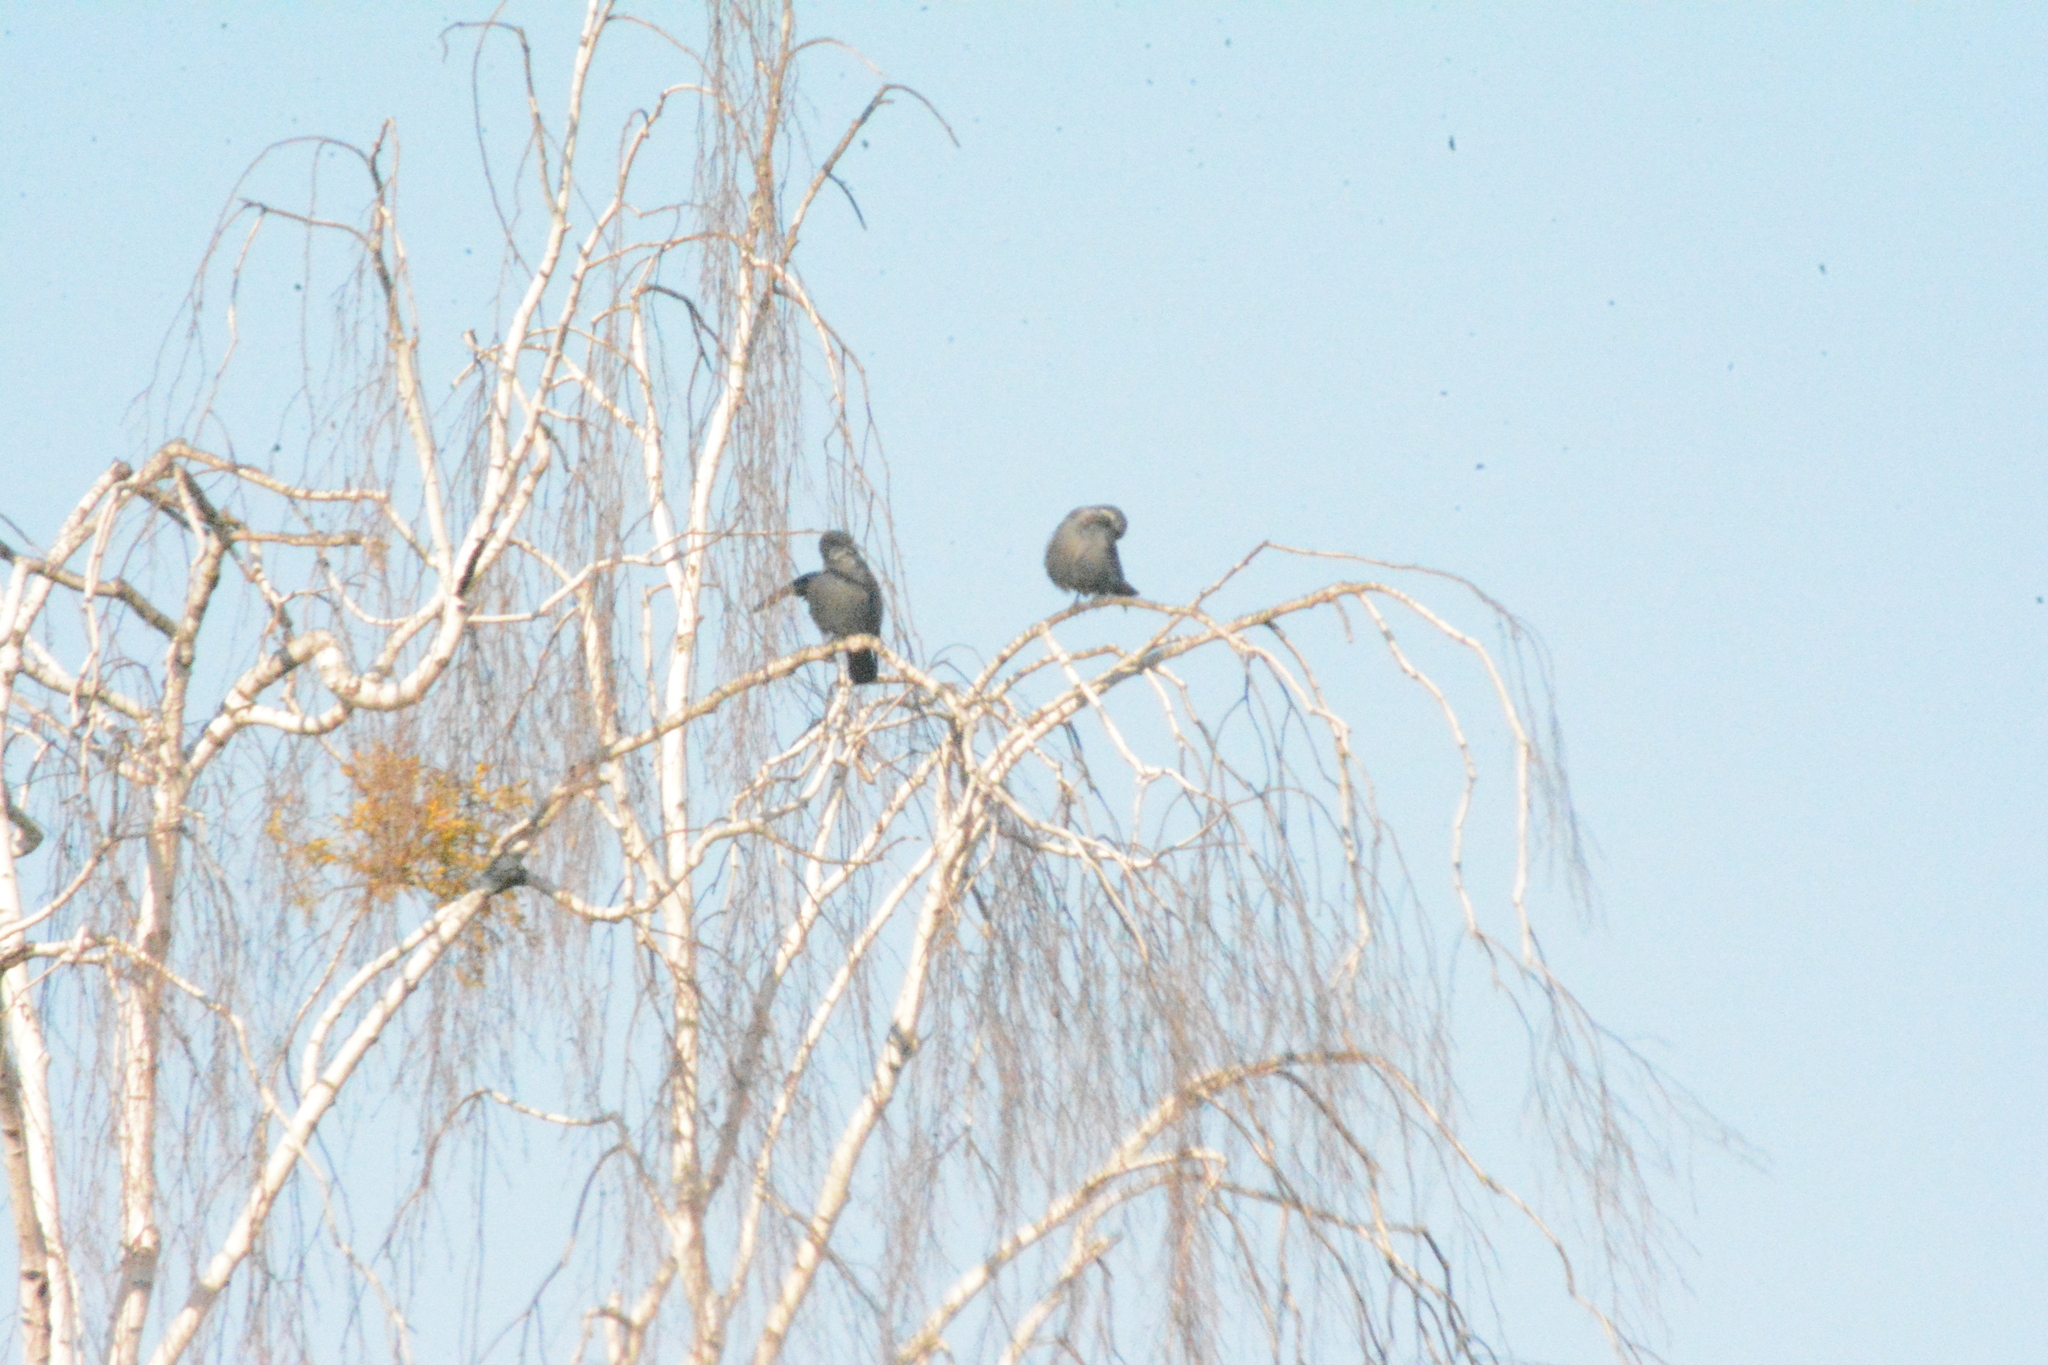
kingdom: Animalia
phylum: Chordata
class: Aves
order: Passeriformes
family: Corvidae
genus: Coloeus
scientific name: Coloeus monedula
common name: Western jackdaw
